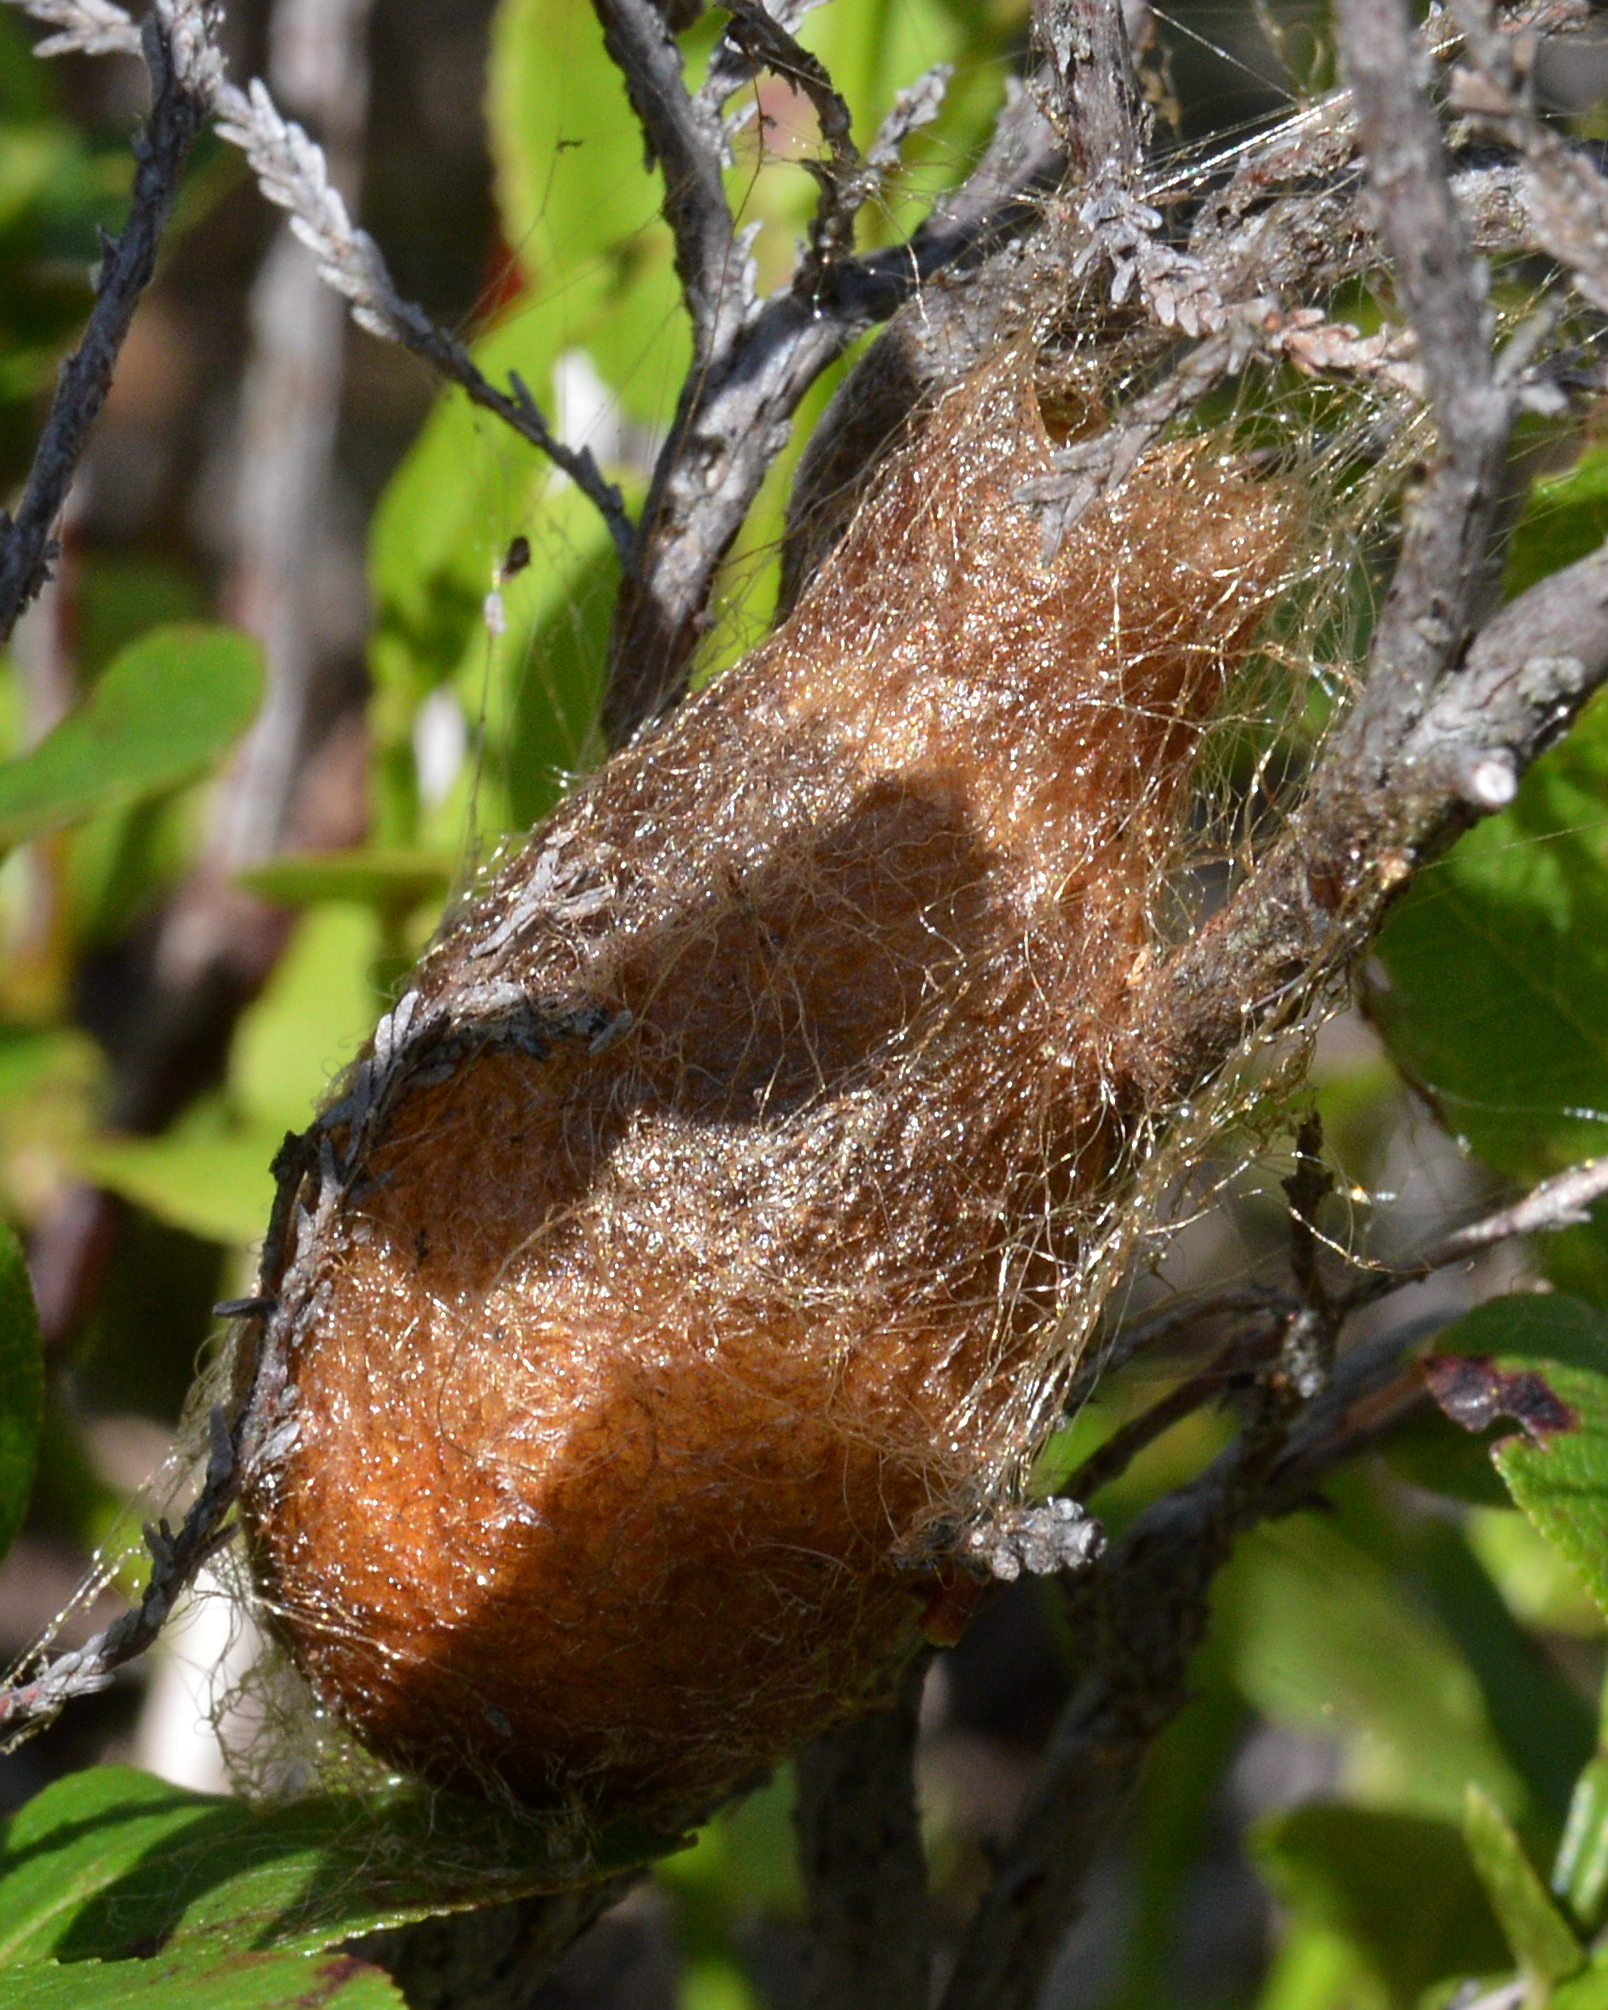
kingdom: Animalia
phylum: Arthropoda
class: Insecta
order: Lepidoptera
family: Saturniidae
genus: Saturnia
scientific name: Saturnia pavonia
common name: Emperor moth
